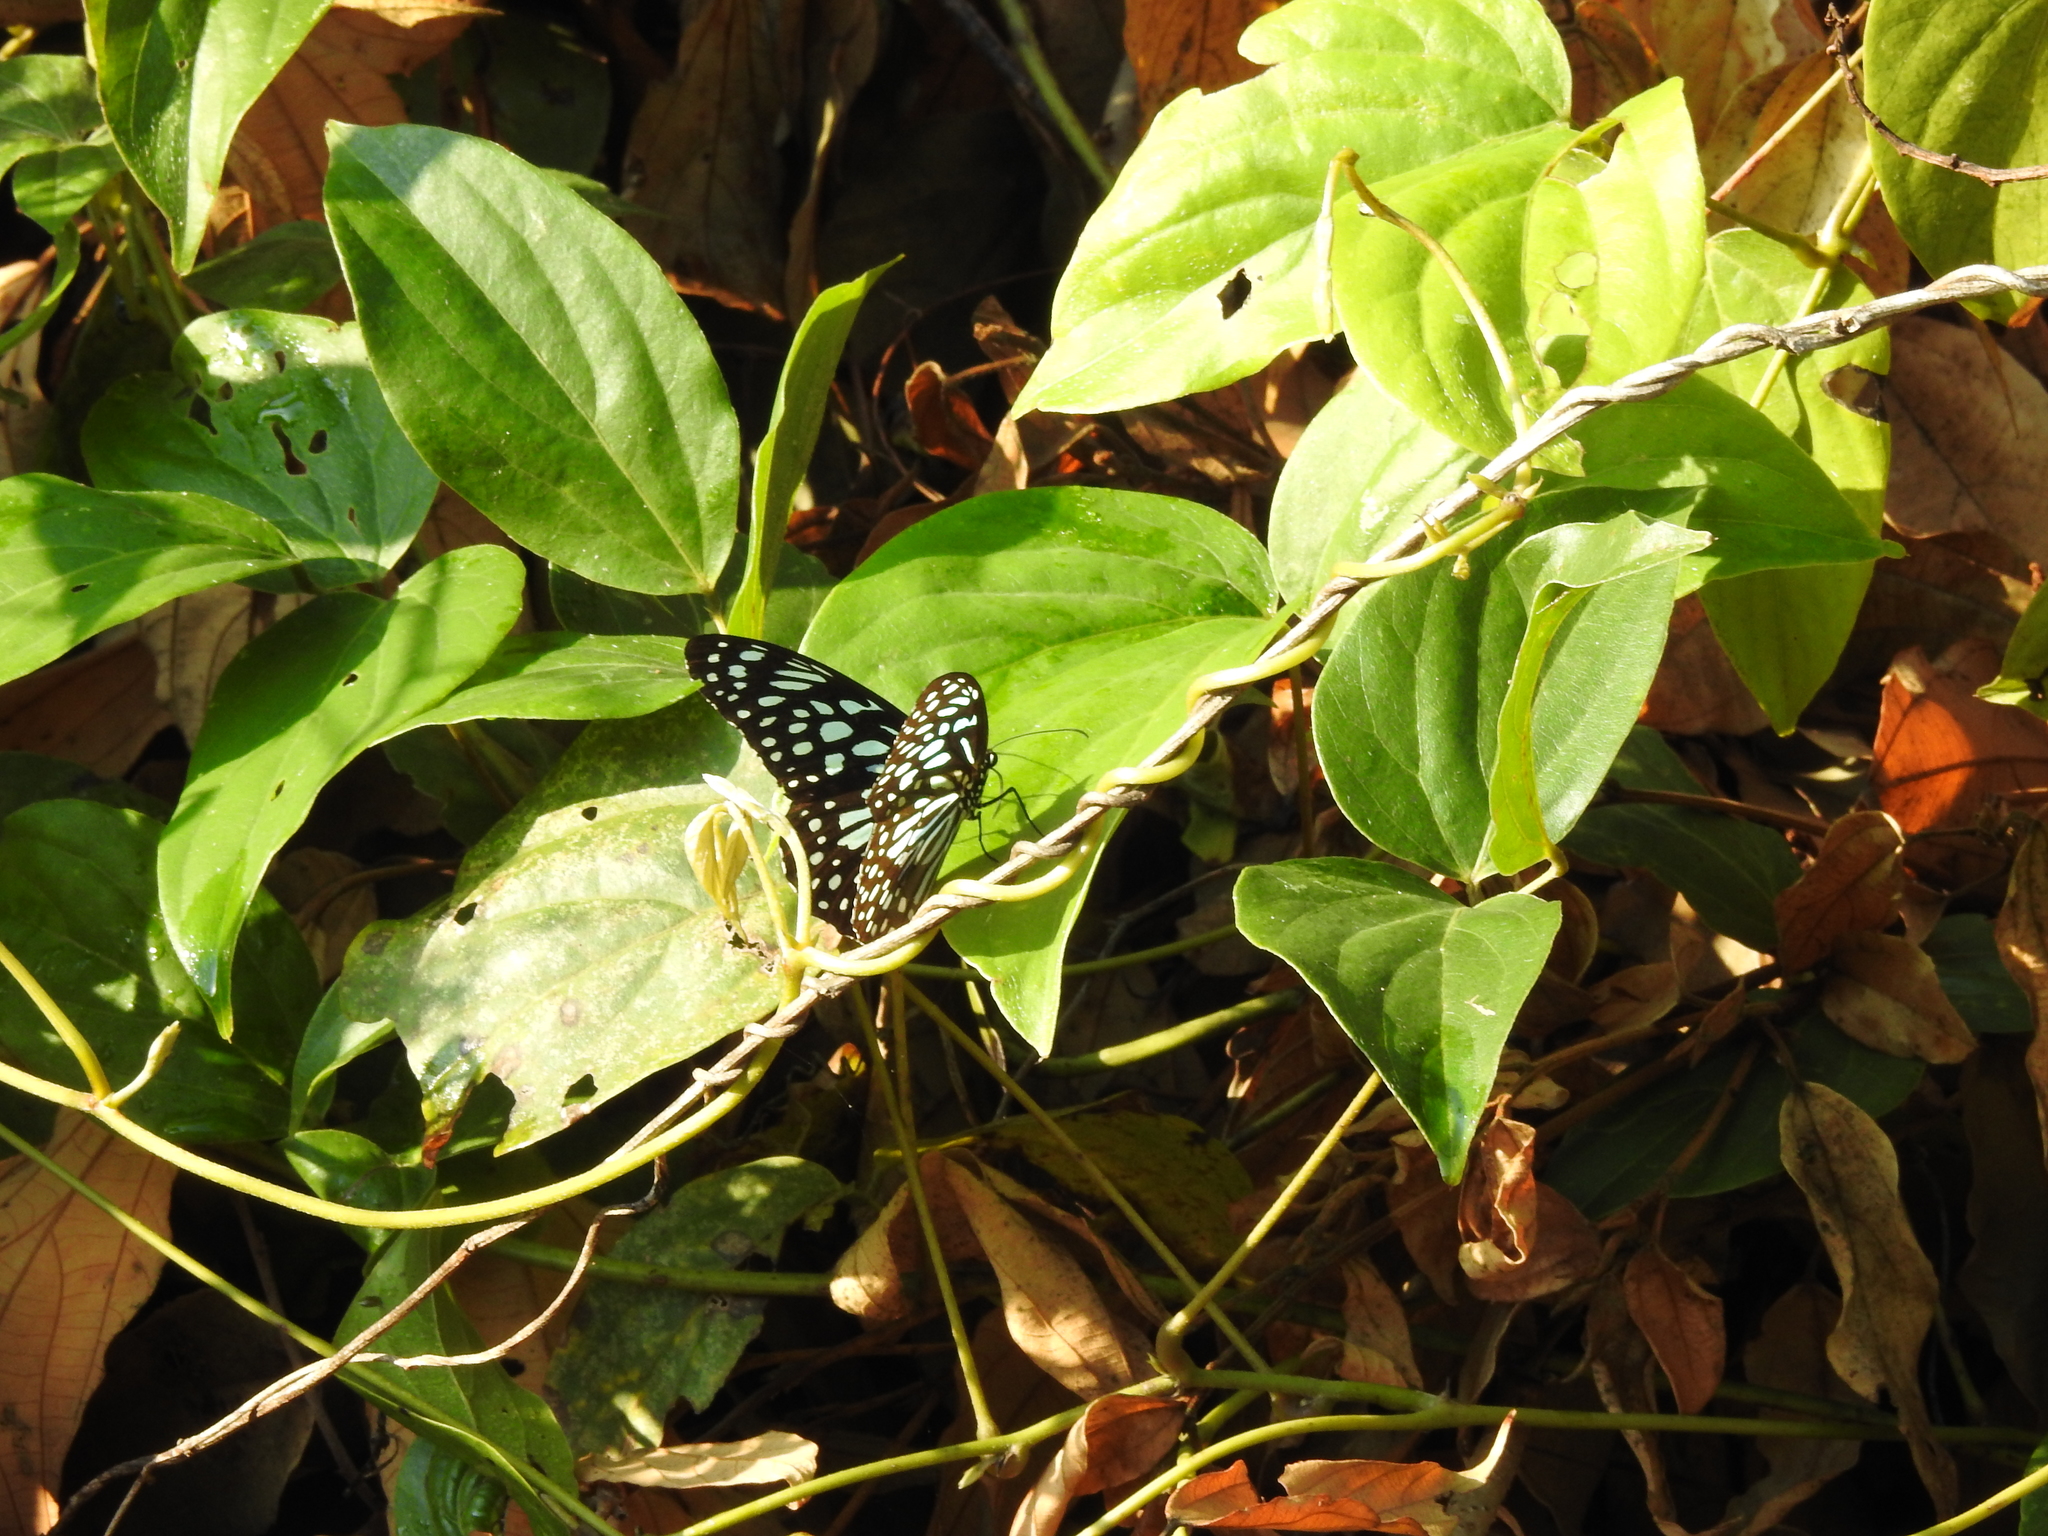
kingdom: Animalia
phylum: Arthropoda
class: Insecta
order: Lepidoptera
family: Nymphalidae
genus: Tirumala
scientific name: Tirumala septentrionis
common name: Dark blue tiger butterfly
